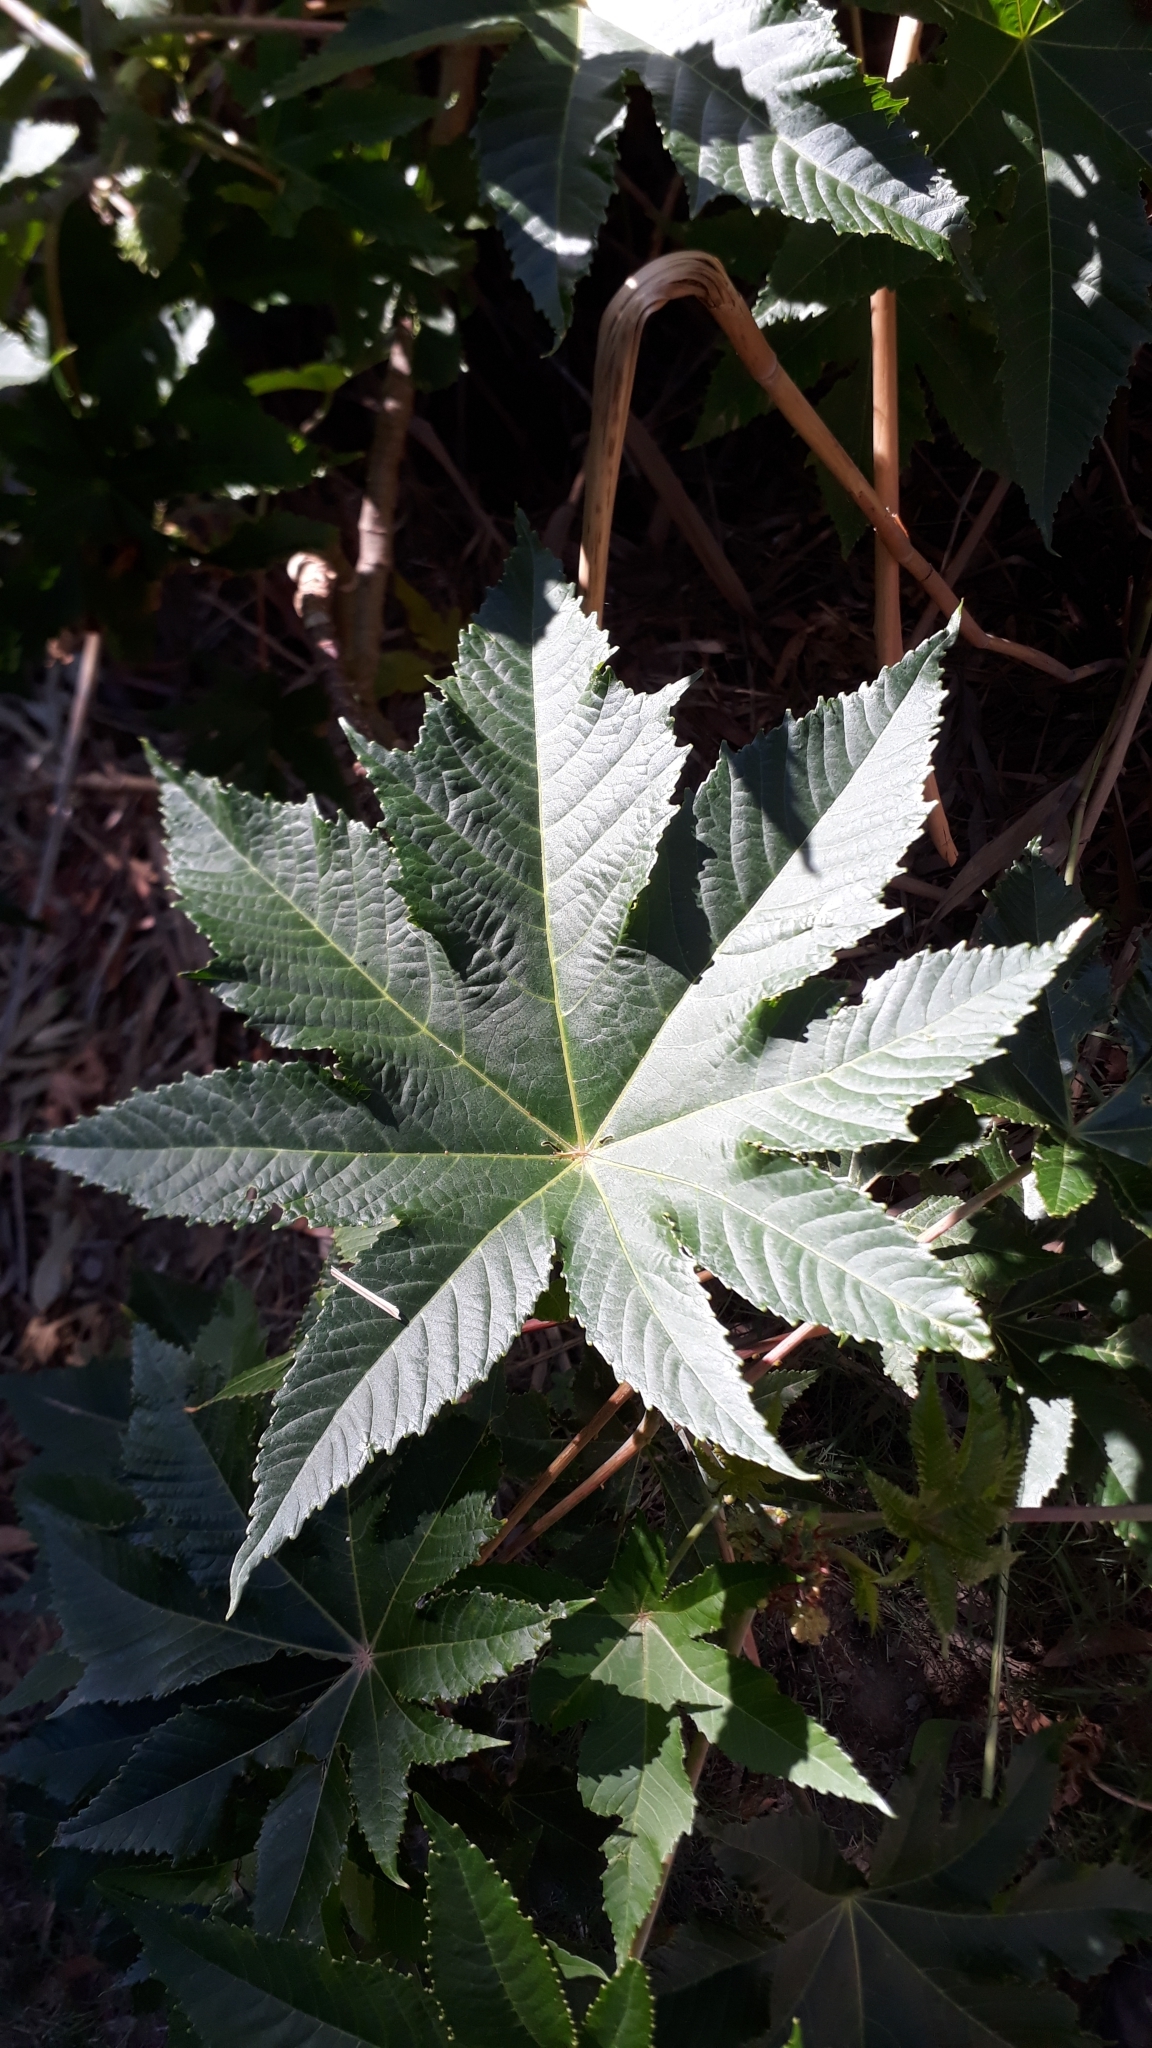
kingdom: Plantae
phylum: Tracheophyta
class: Magnoliopsida
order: Malpighiales
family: Euphorbiaceae
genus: Ricinus
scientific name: Ricinus communis
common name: Castor-oil-plant
